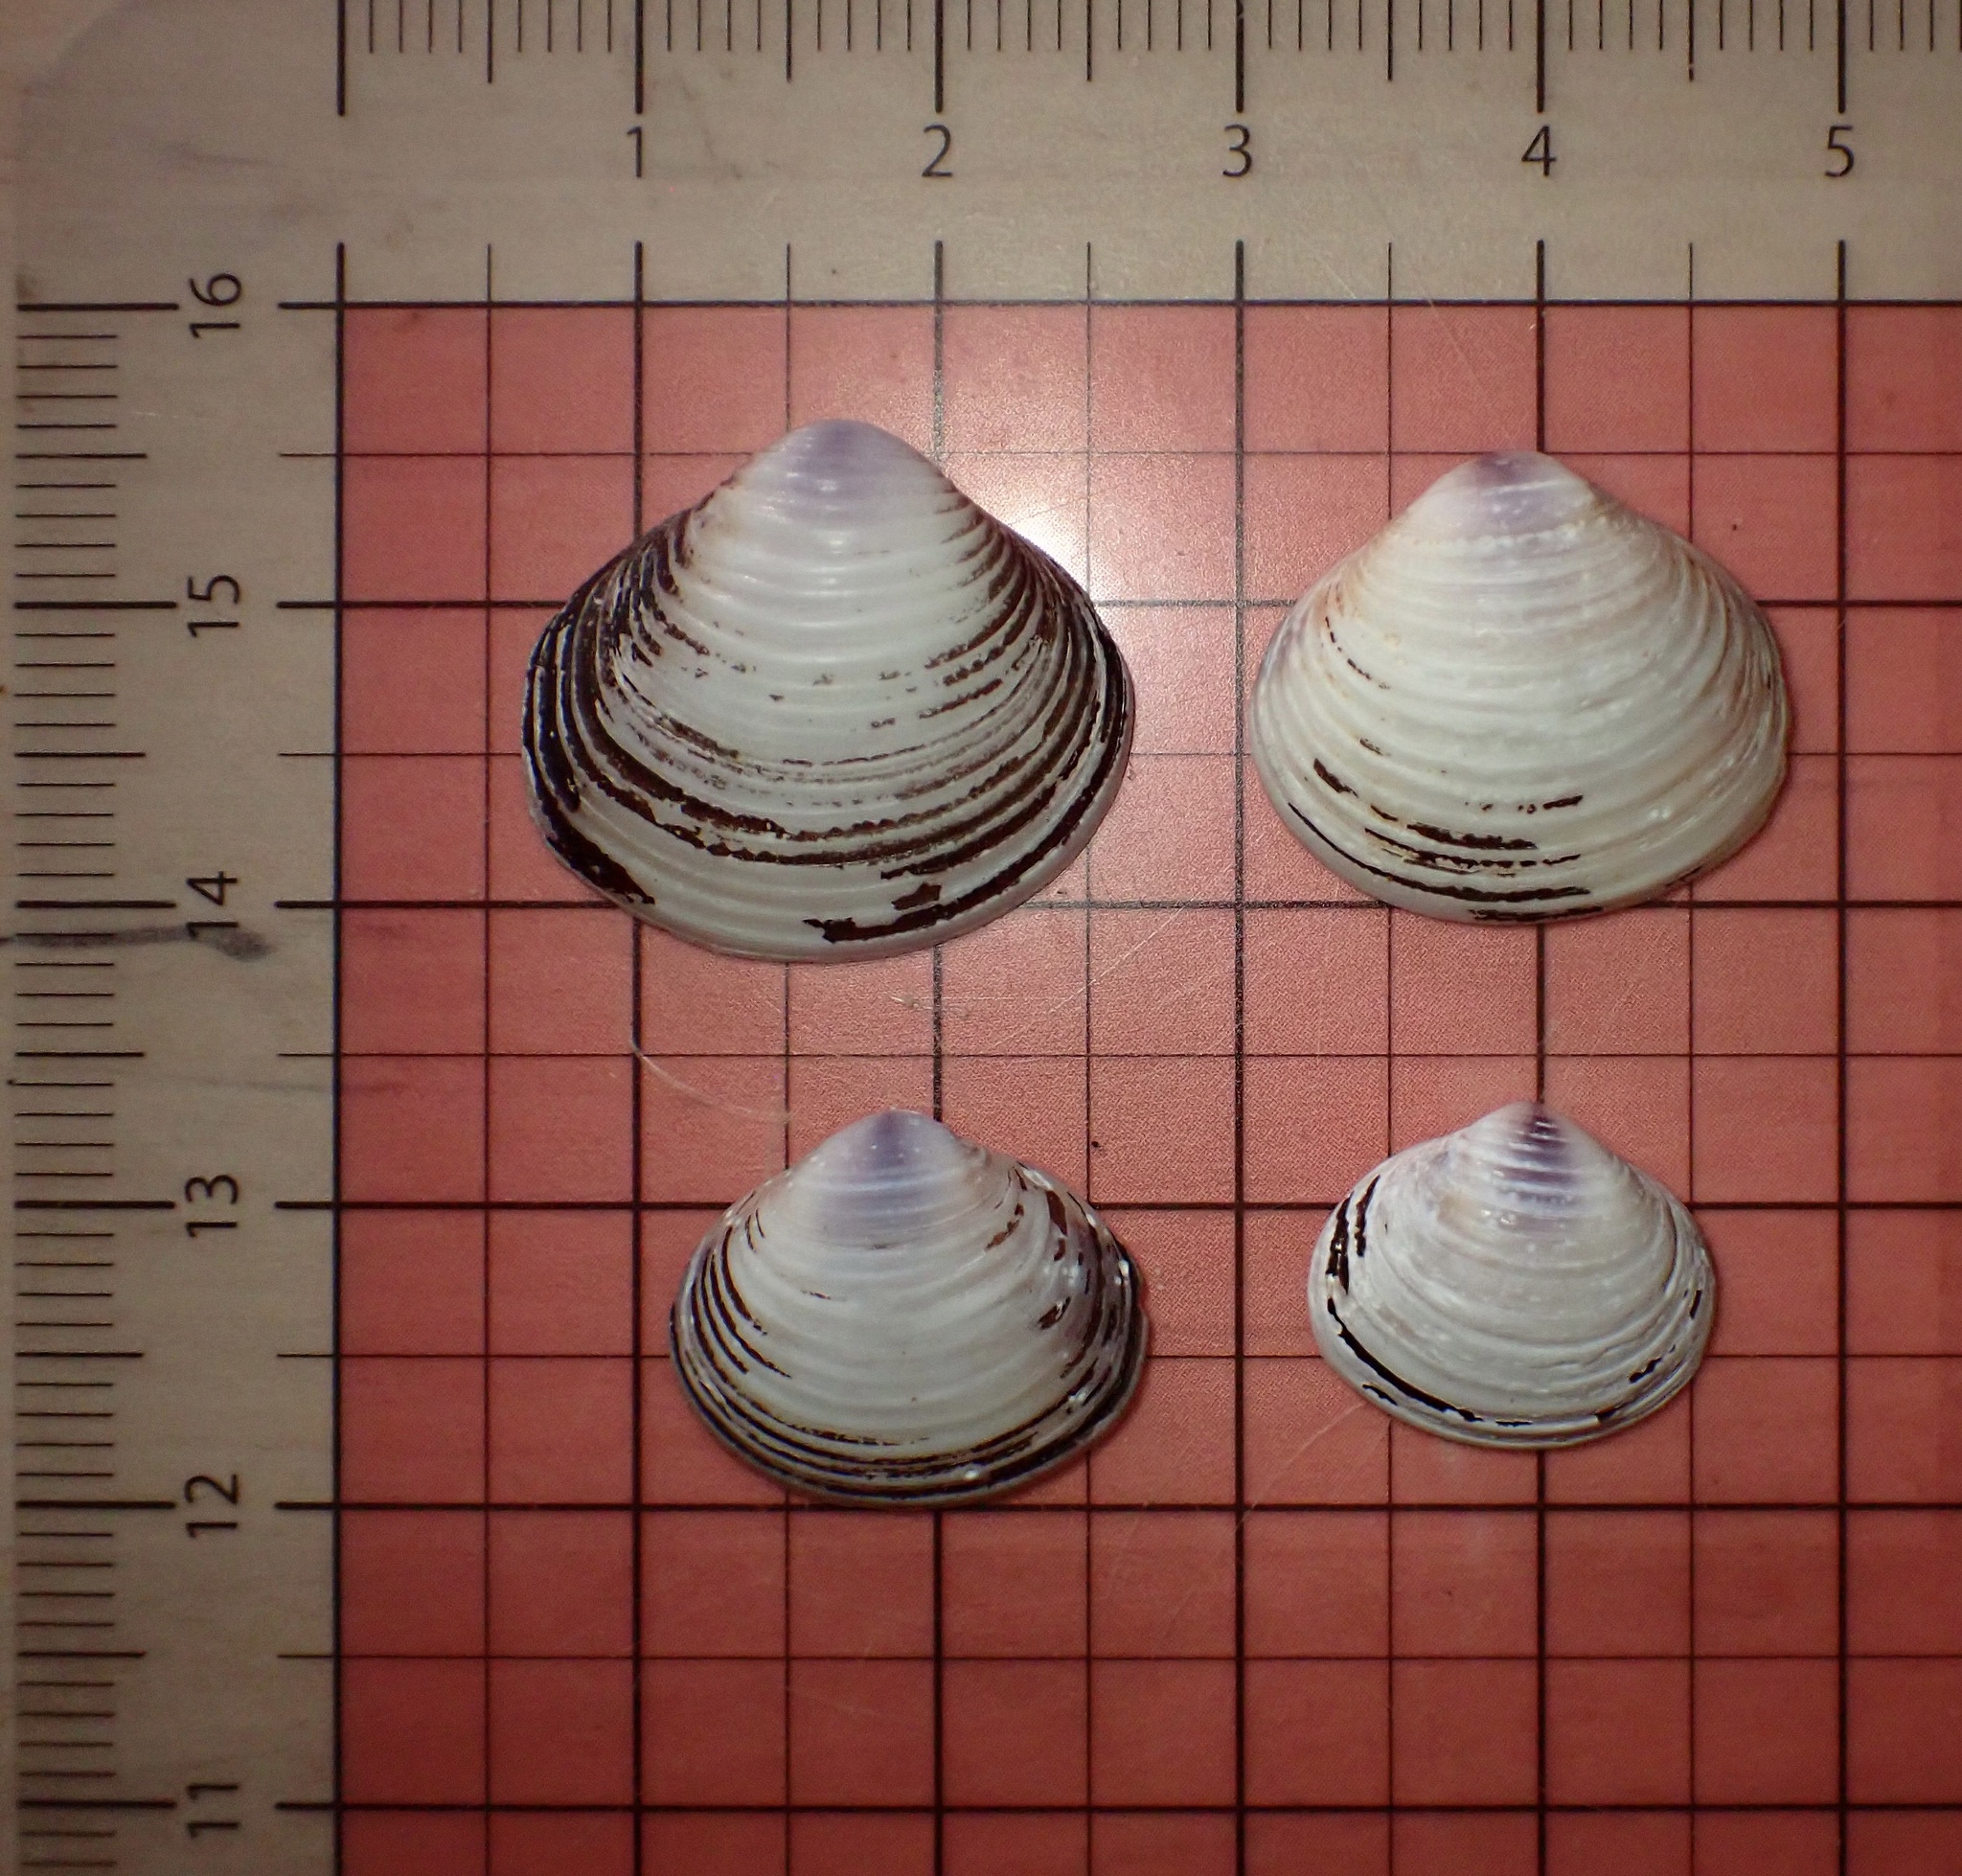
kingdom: Animalia
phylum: Mollusca
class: Bivalvia
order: Venerida
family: Cyrenidae
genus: Corbicula
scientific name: Corbicula fluminea
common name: Asian clam
